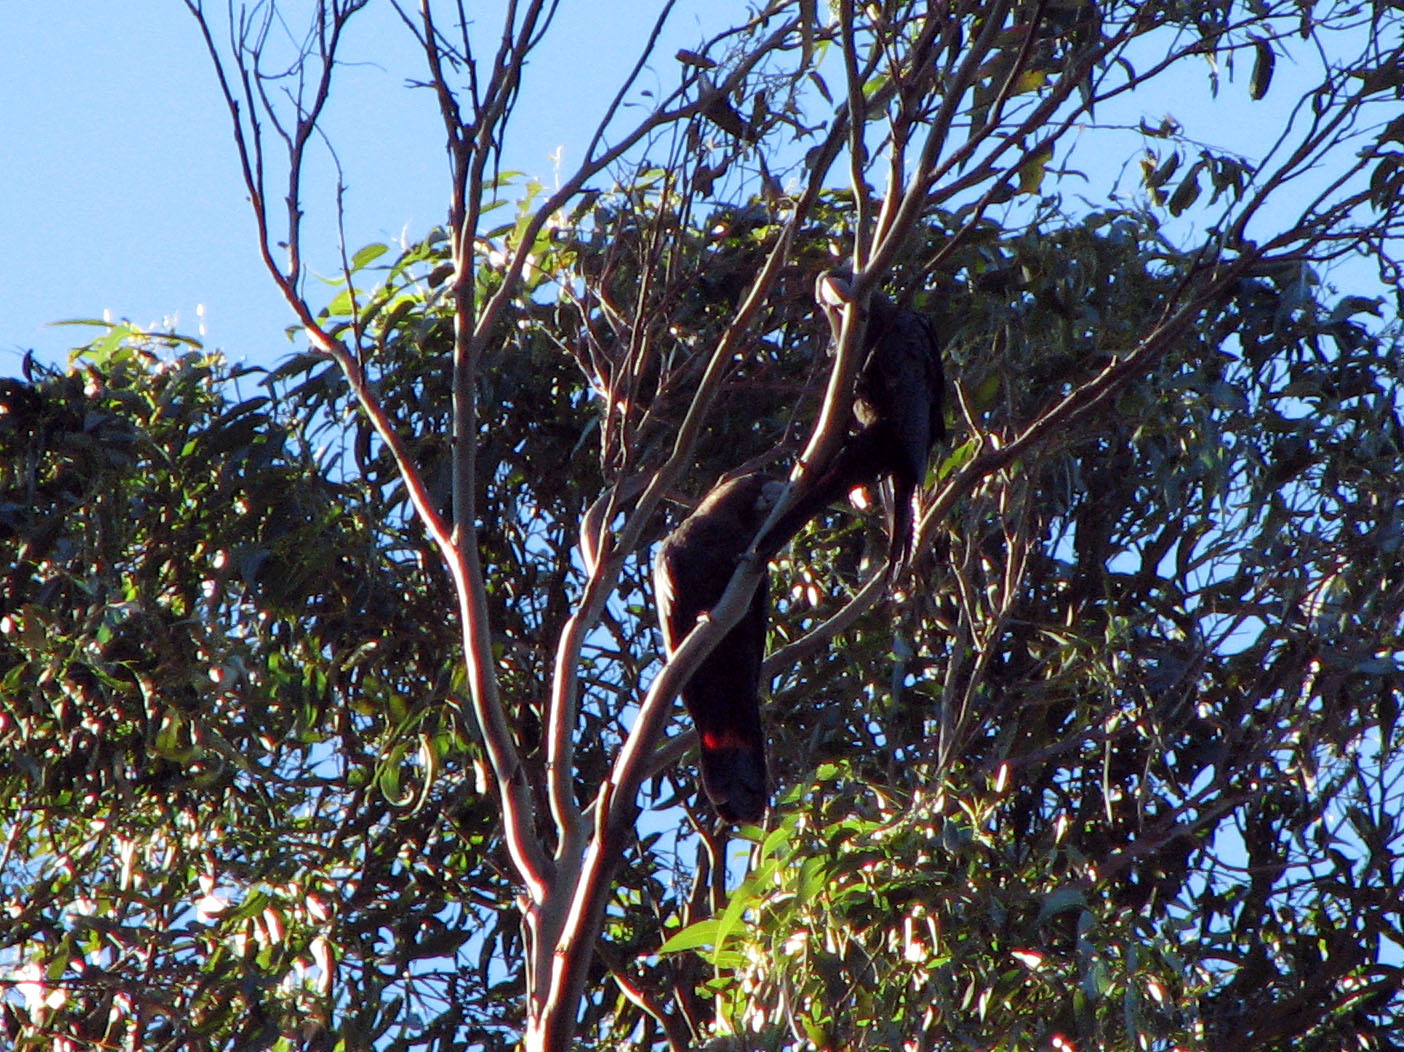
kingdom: Animalia
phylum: Chordata
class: Aves
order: Psittaciformes
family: Psittacidae
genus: Calyptorhynchus
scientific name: Calyptorhynchus lathami
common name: Glossy black cockatoo
